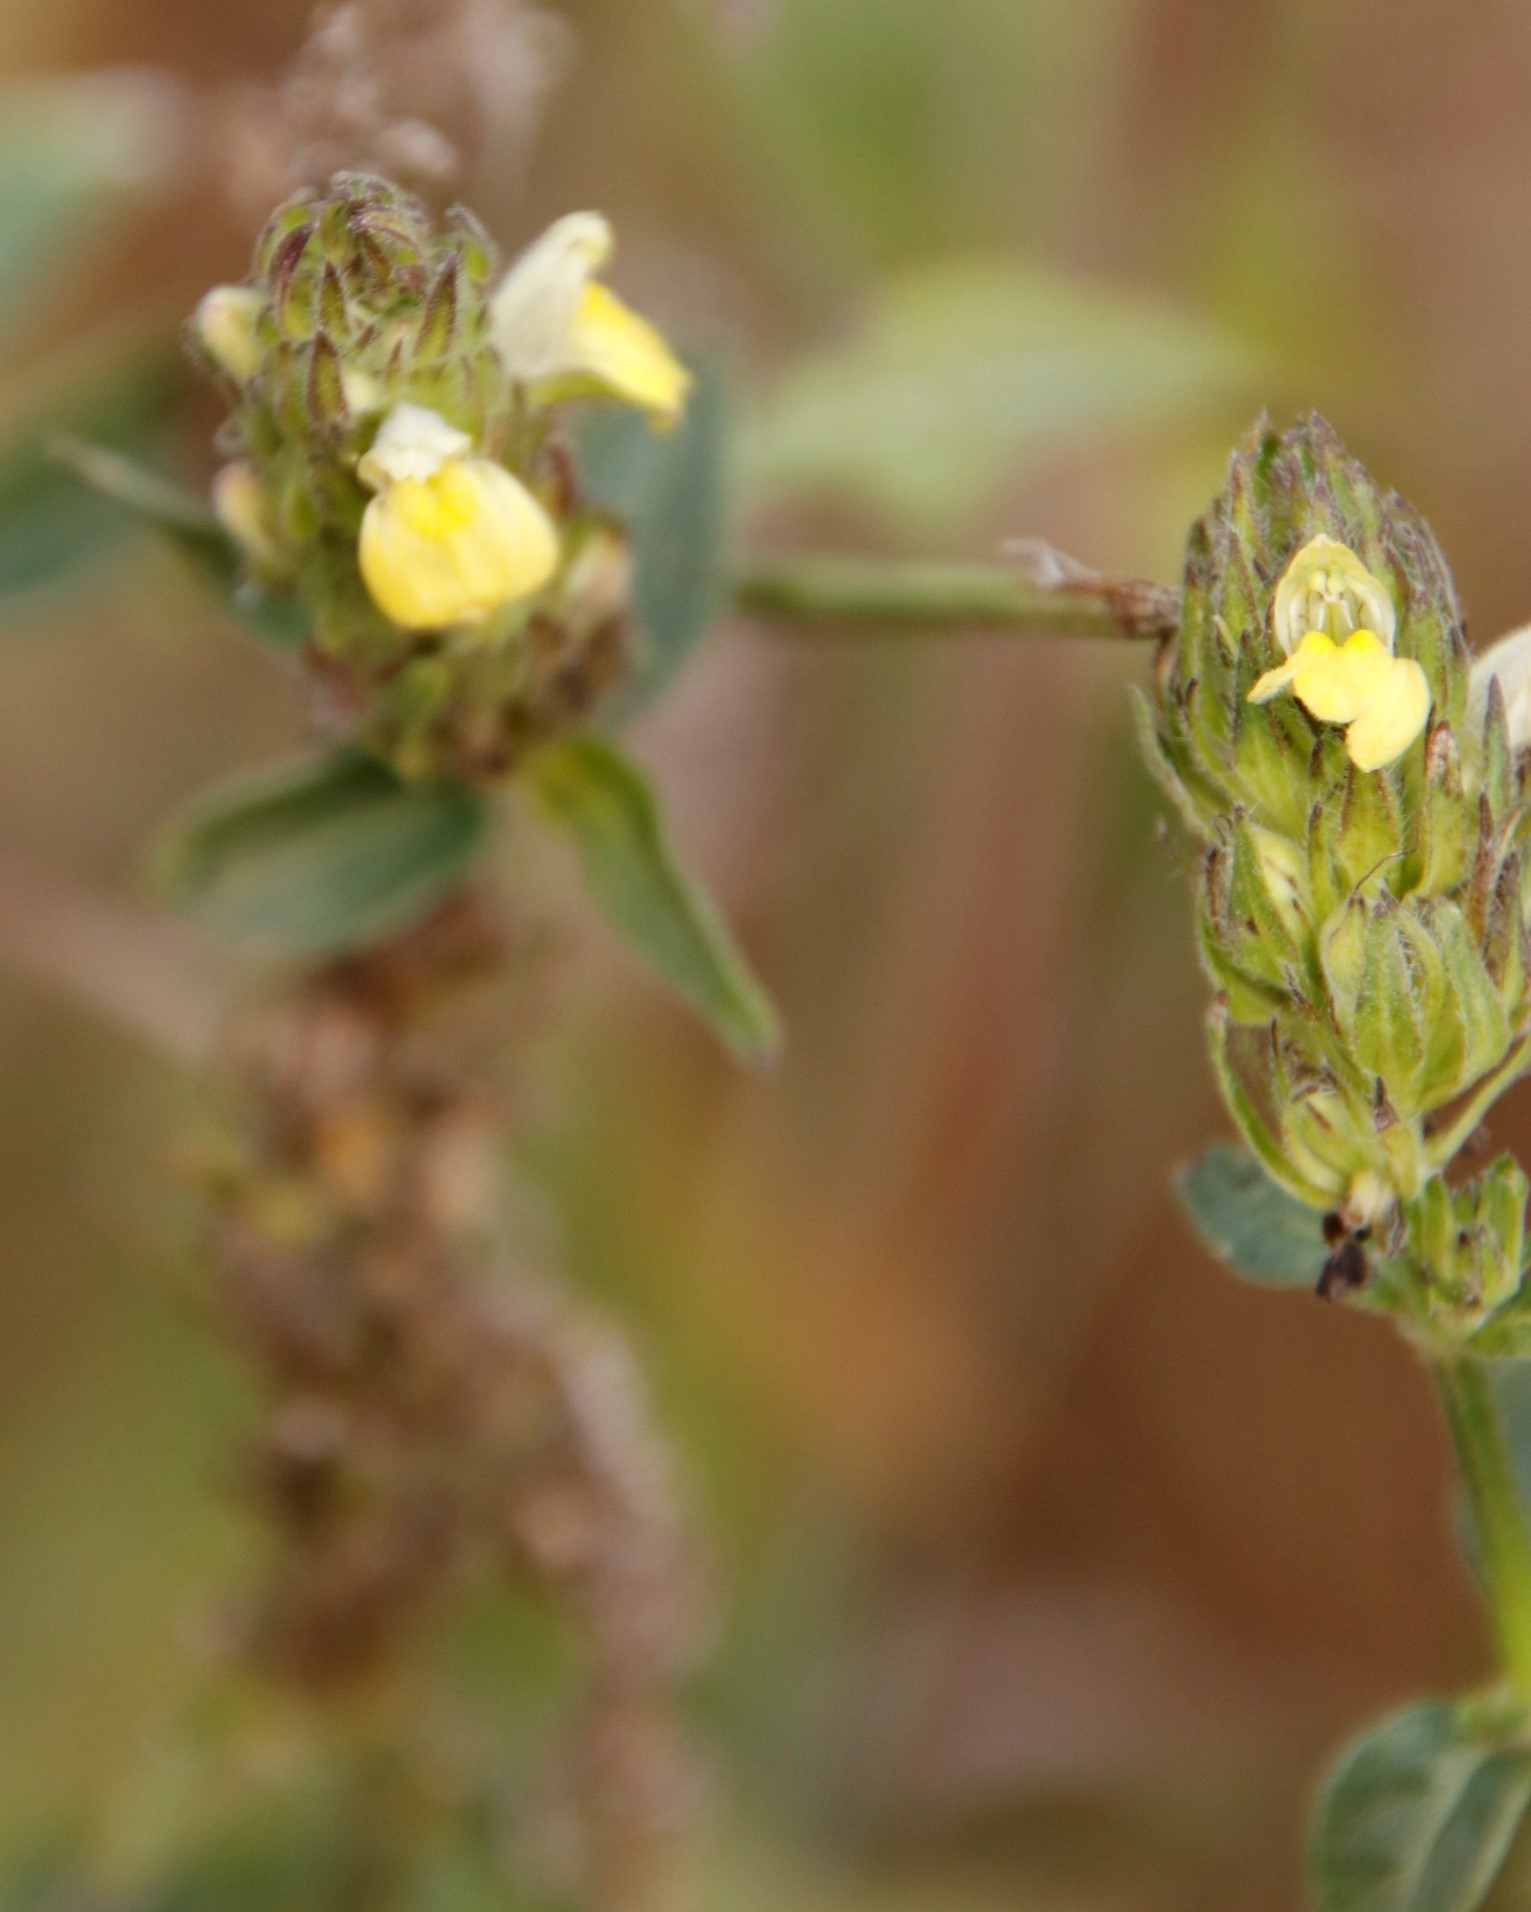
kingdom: Plantae
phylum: Tracheophyta
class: Magnoliopsida
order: Lamiales
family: Acanthaceae
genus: Justicia
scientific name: Justicia flava
